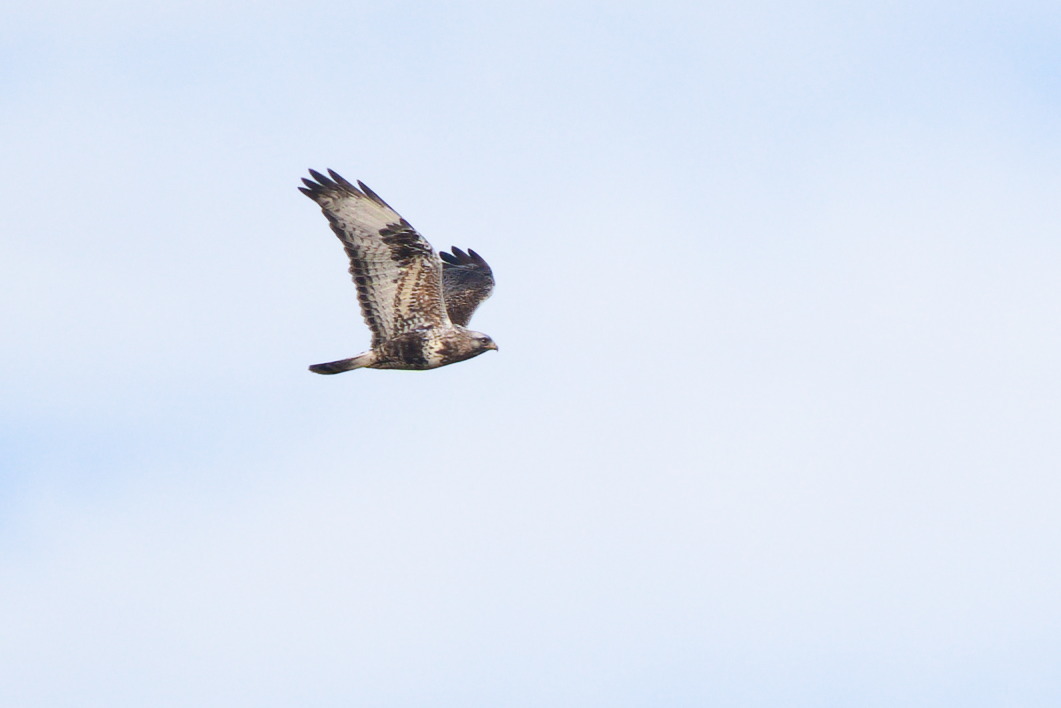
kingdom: Animalia
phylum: Chordata
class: Aves
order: Accipitriformes
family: Accipitridae
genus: Buteo
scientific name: Buteo lagopus
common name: Rough-legged buzzard
